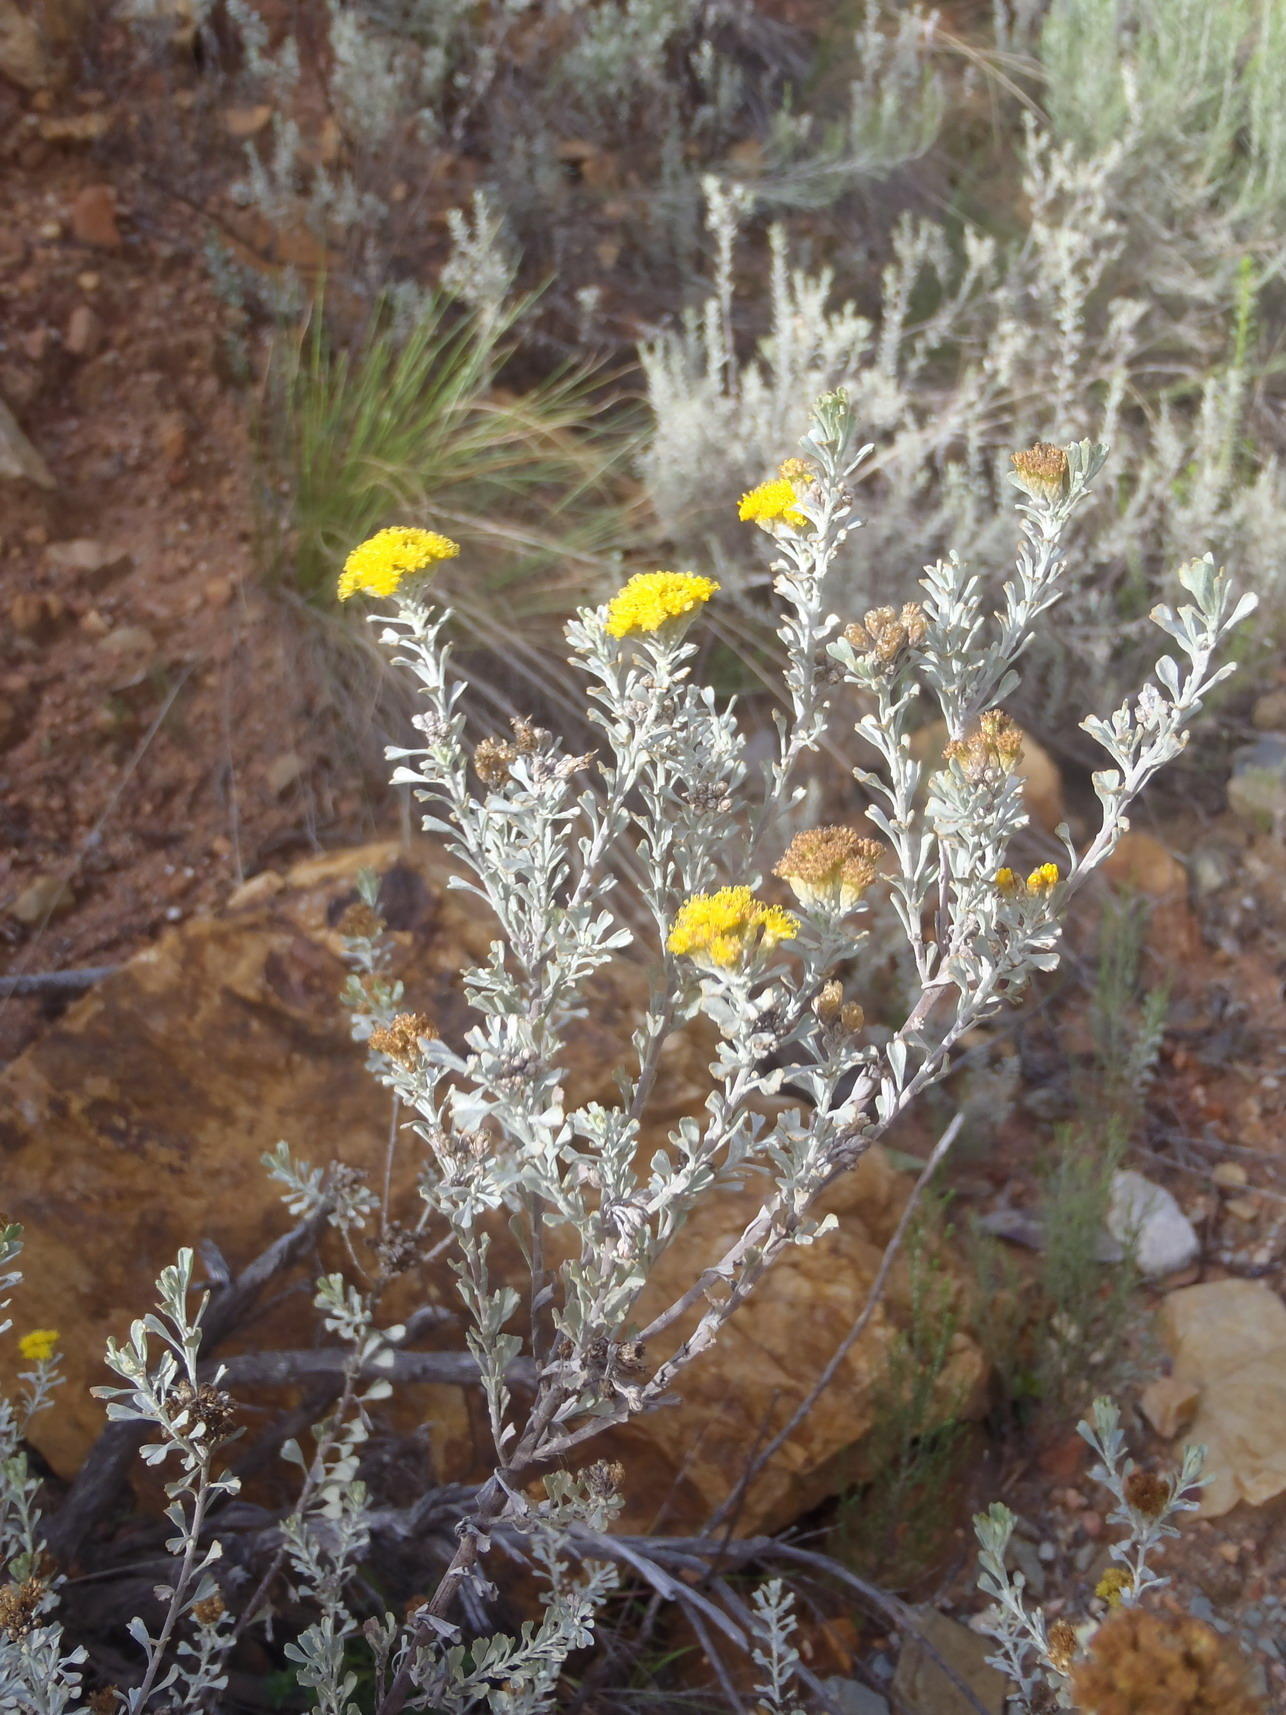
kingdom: Plantae
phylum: Tracheophyta
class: Magnoliopsida
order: Asterales
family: Asteraceae
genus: Pentzia
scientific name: Pentzia dentata
